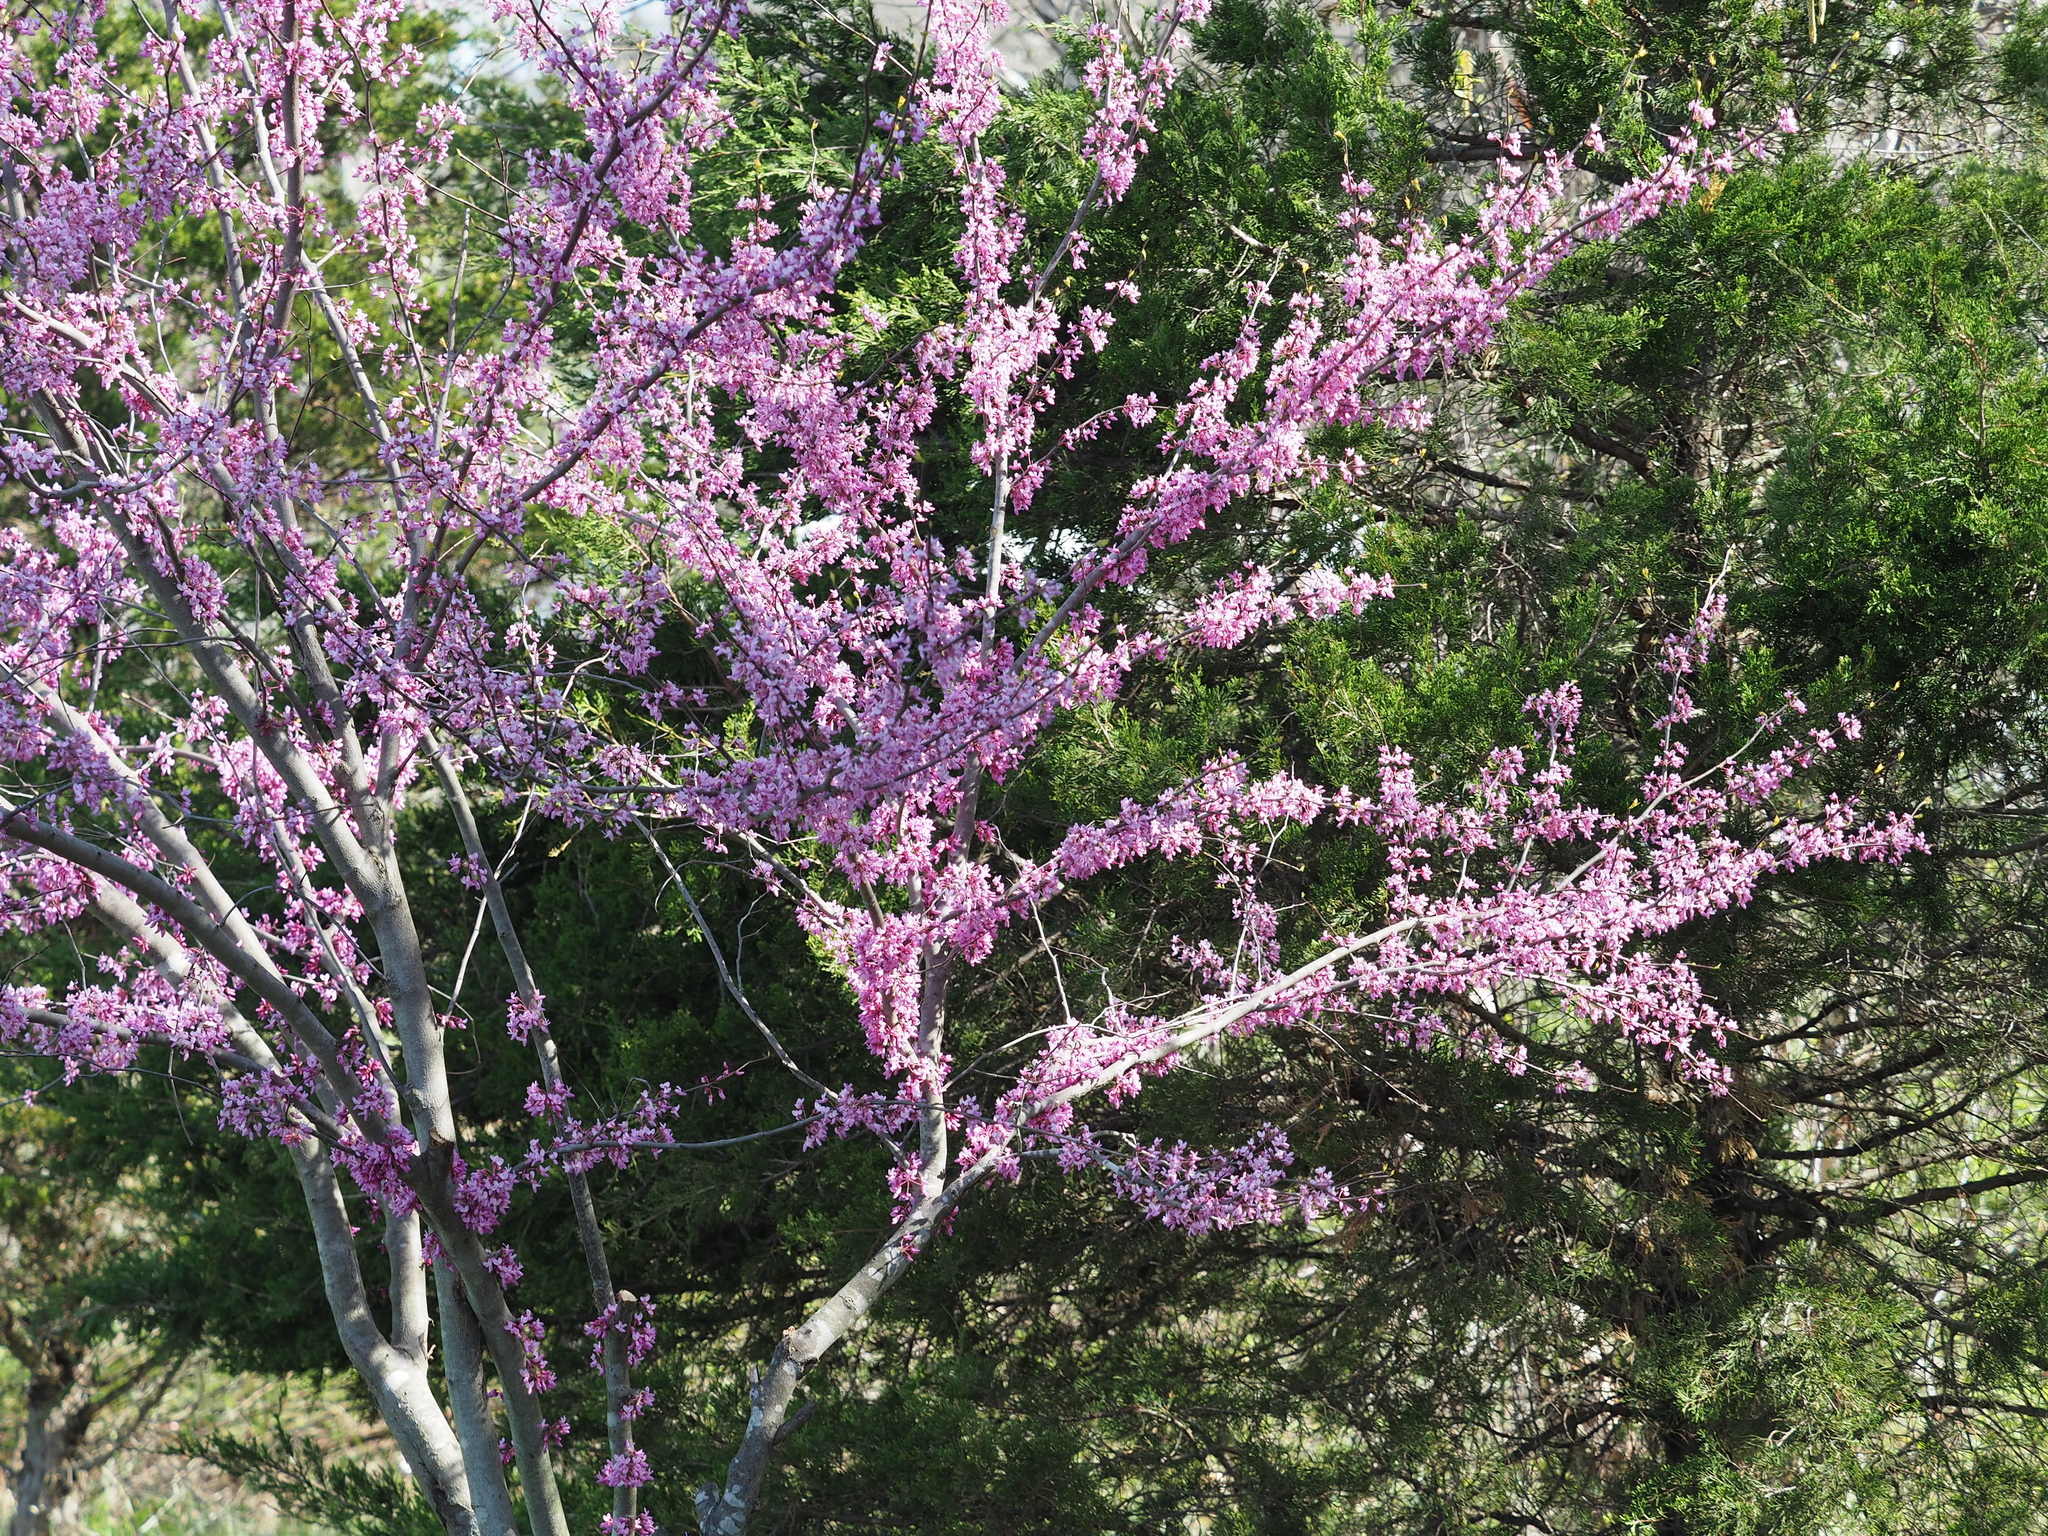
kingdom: Plantae
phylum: Tracheophyta
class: Magnoliopsida
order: Fabales
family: Fabaceae
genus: Cercis
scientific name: Cercis canadensis
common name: Eastern redbud
